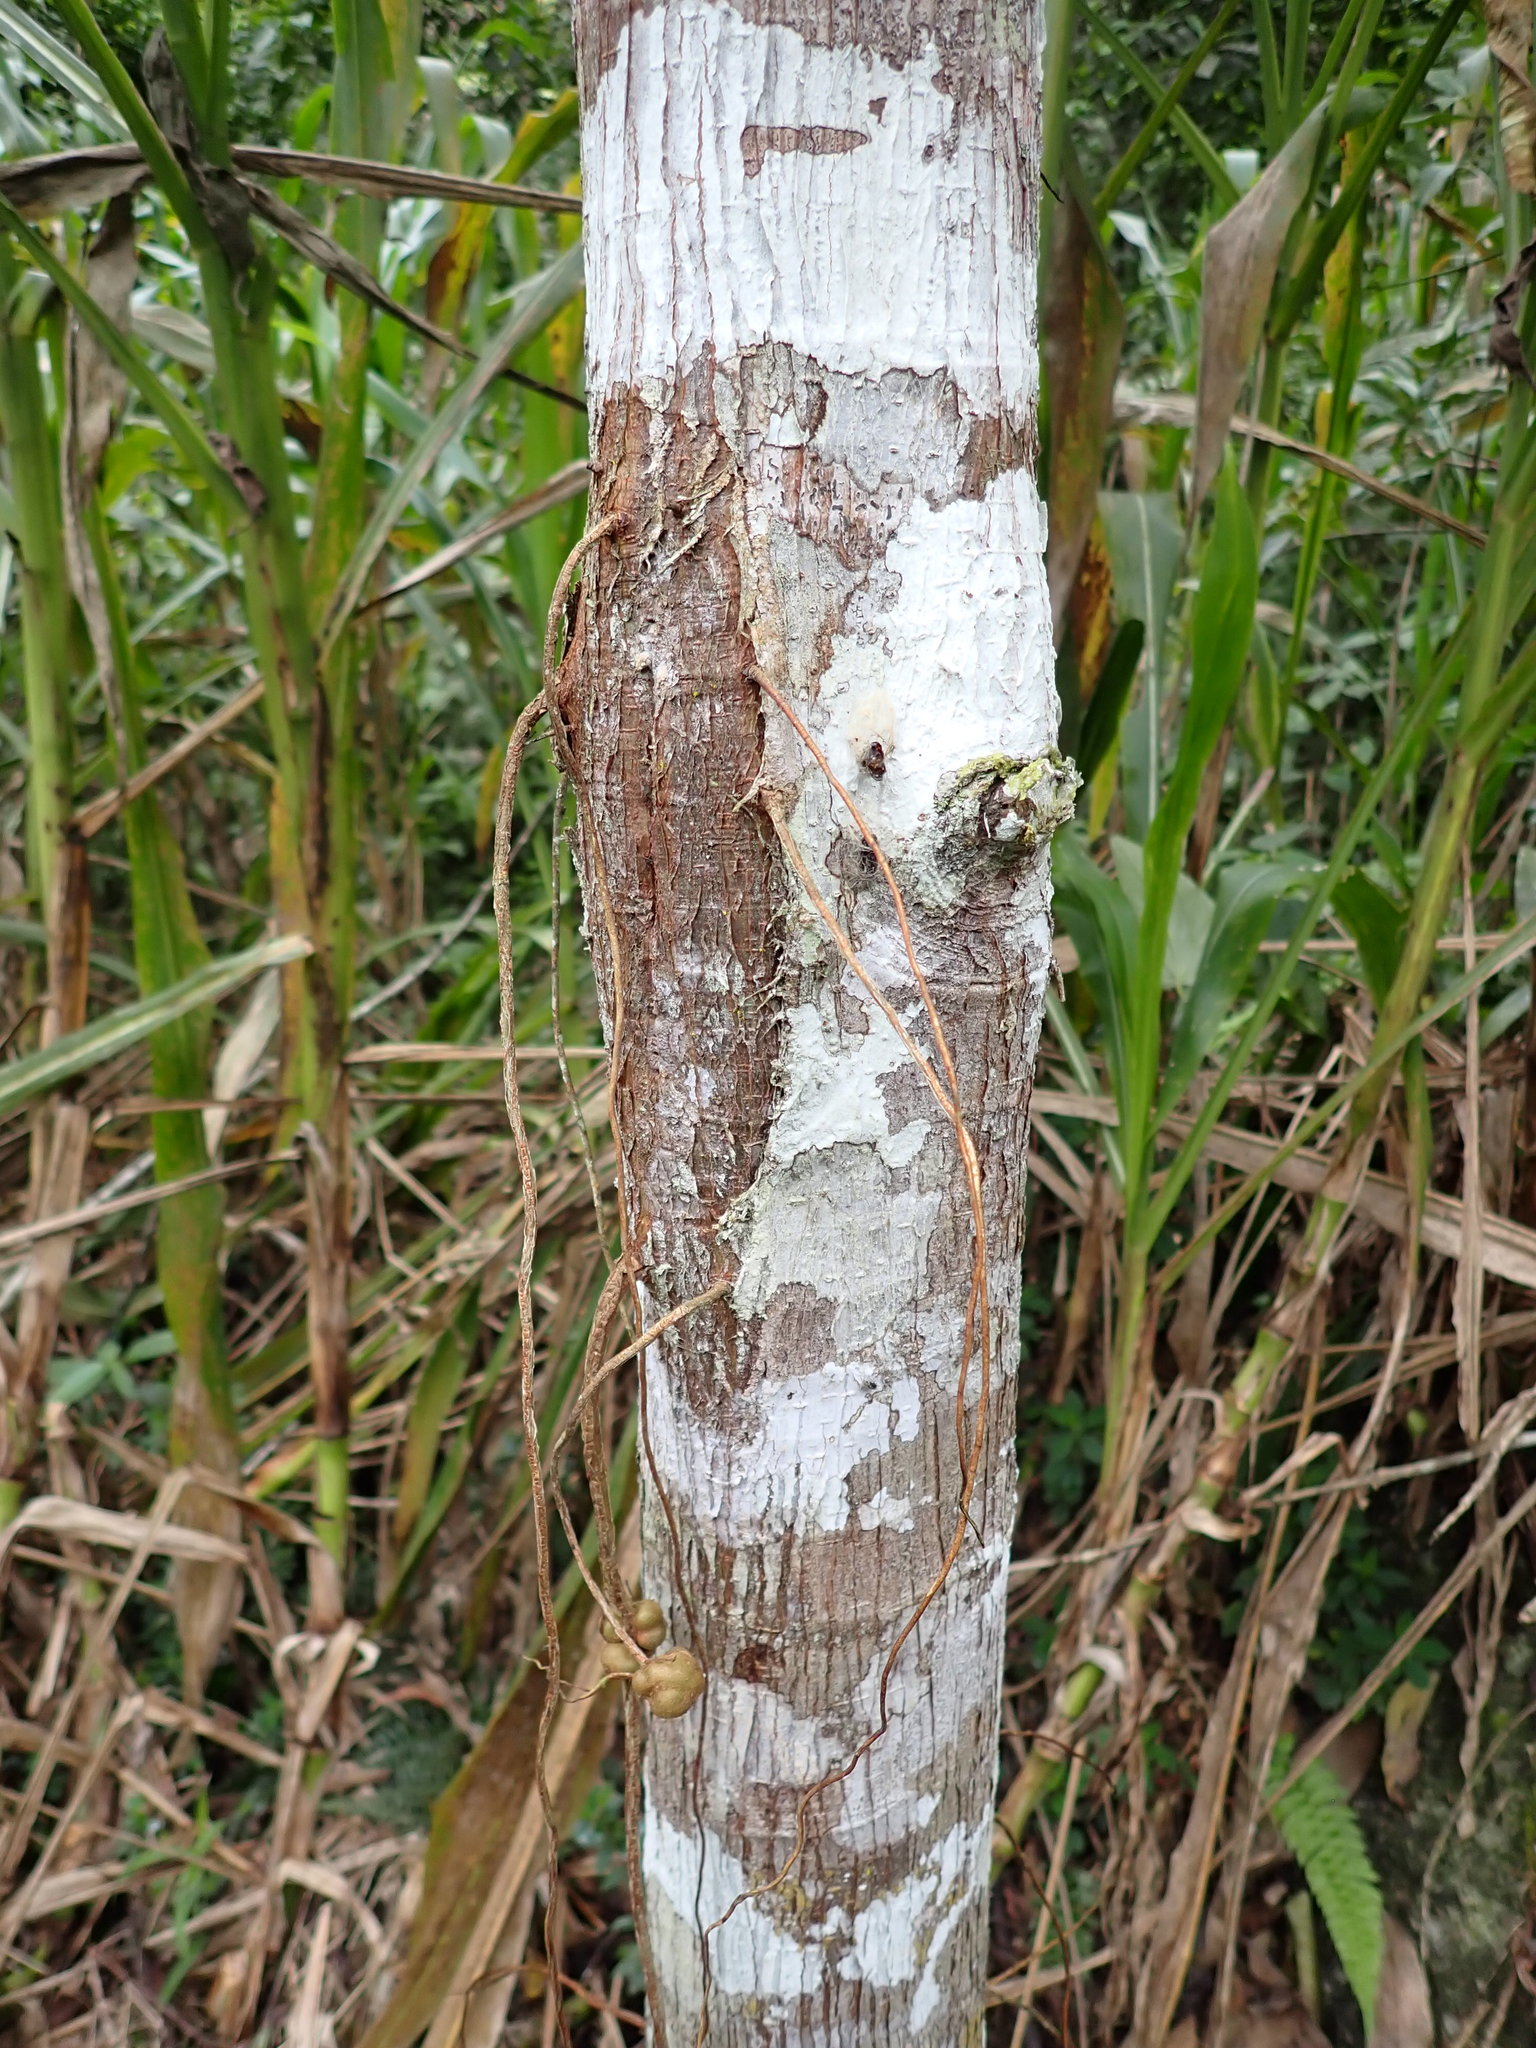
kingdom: Plantae
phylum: Tracheophyta
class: Magnoliopsida
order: Rosales
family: Moraceae
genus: Ficus
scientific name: Ficus krukovii
